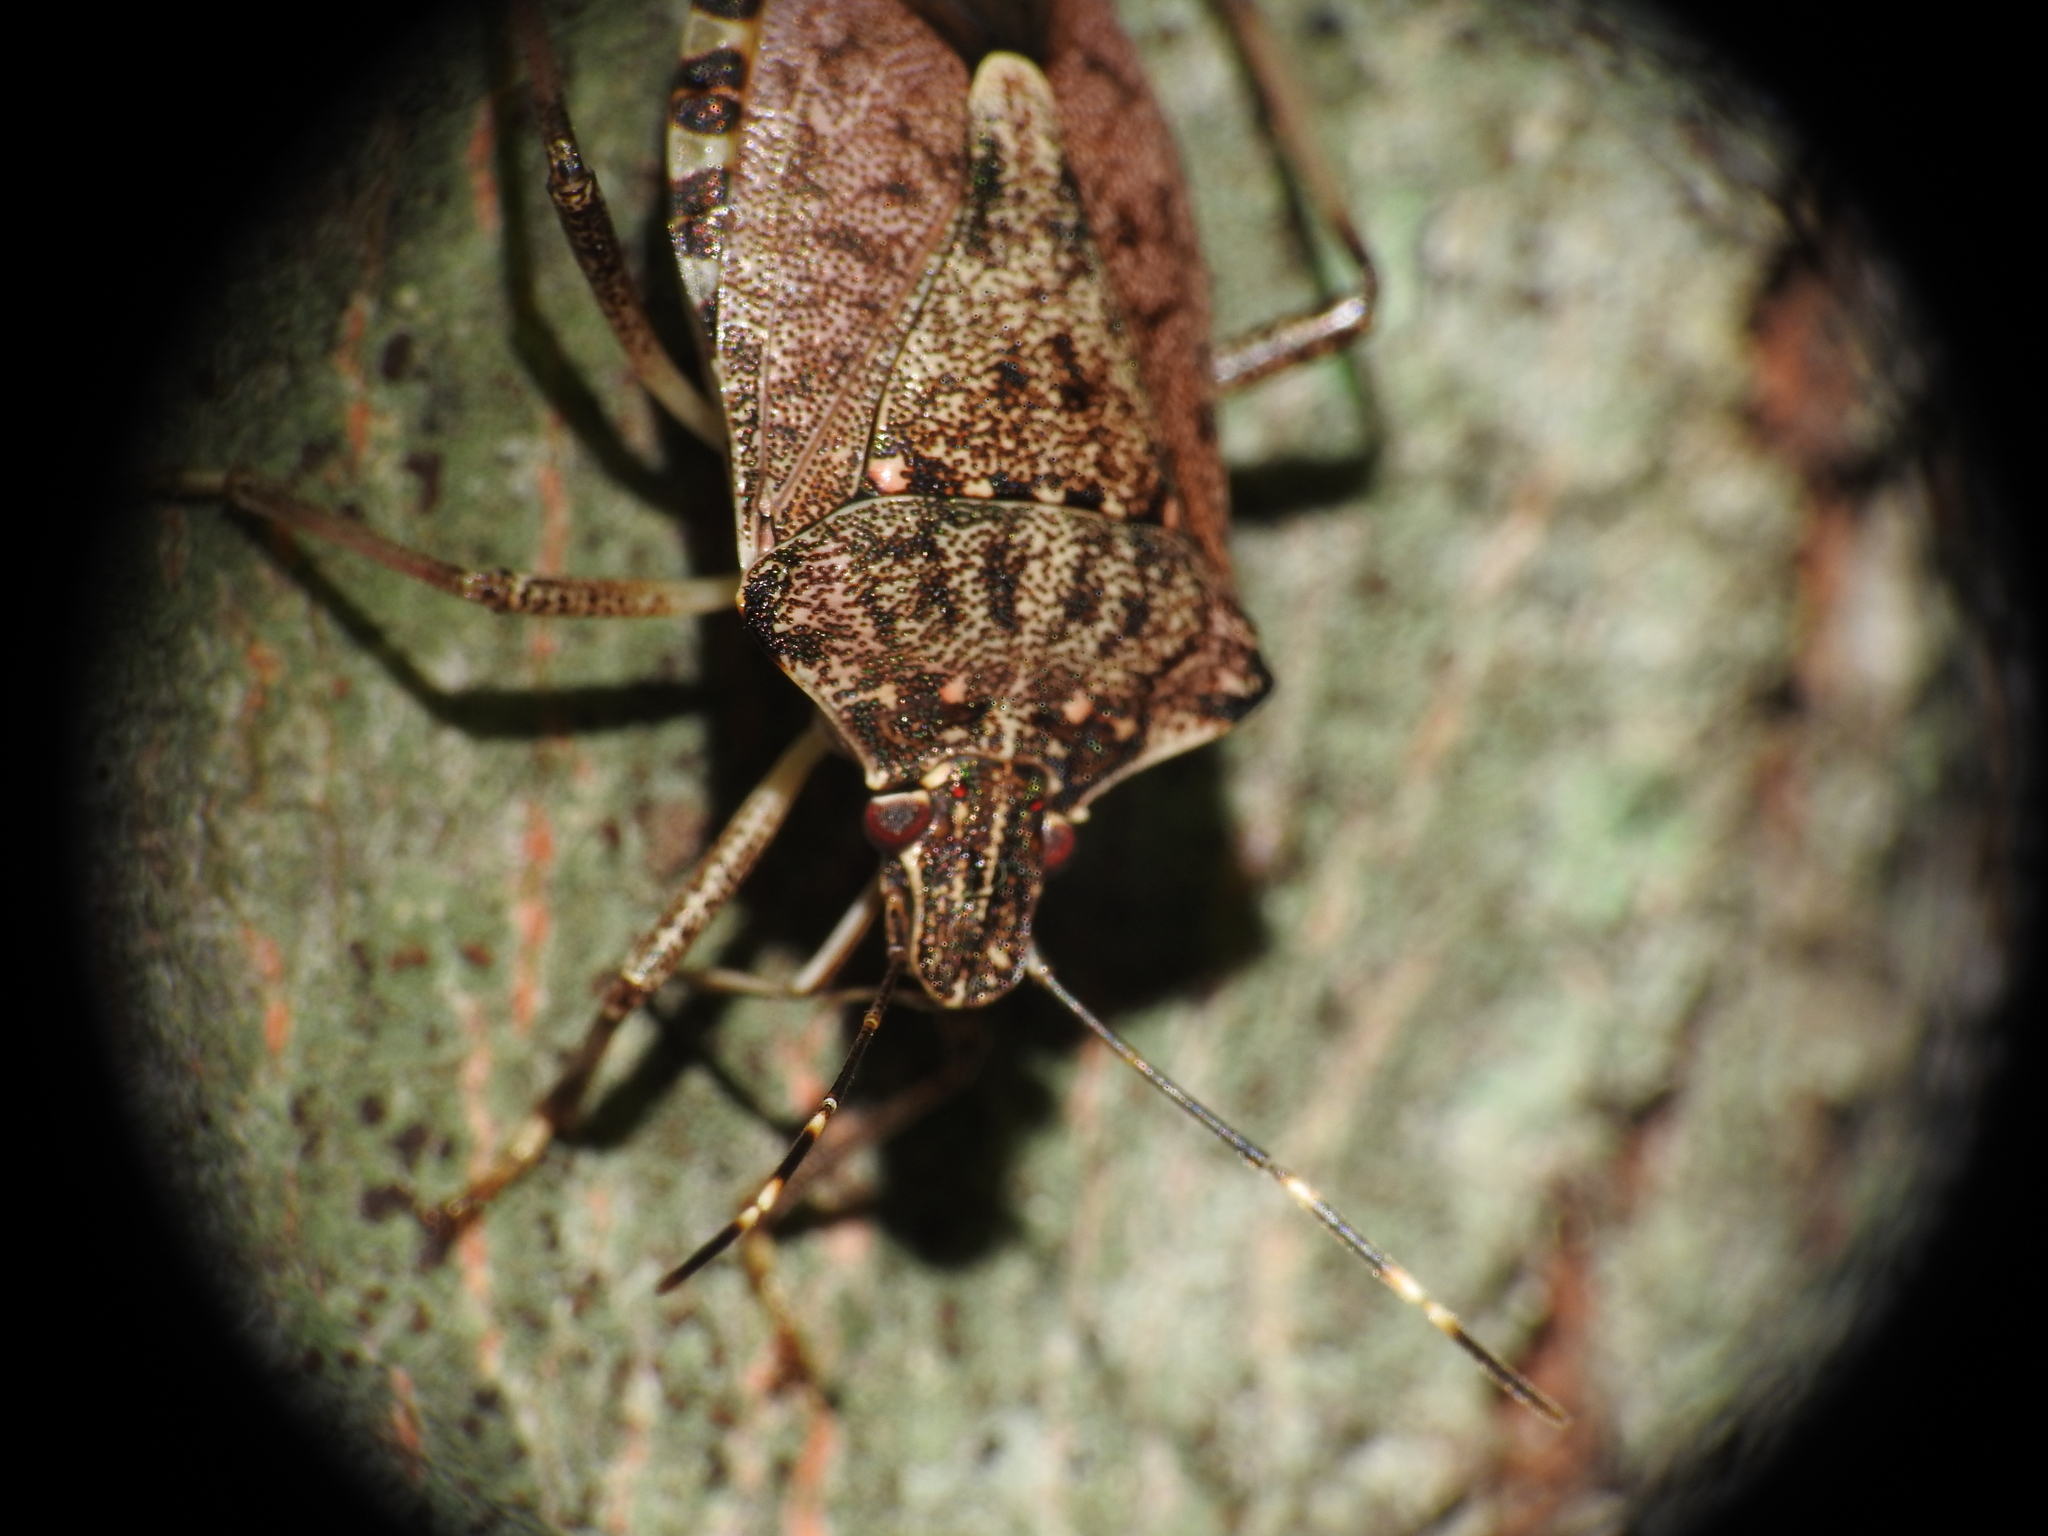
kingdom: Animalia
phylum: Arthropoda
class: Insecta
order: Hemiptera
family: Pentatomidae
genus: Halyomorpha
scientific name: Halyomorpha halys
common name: Brown marmorated stink bug
